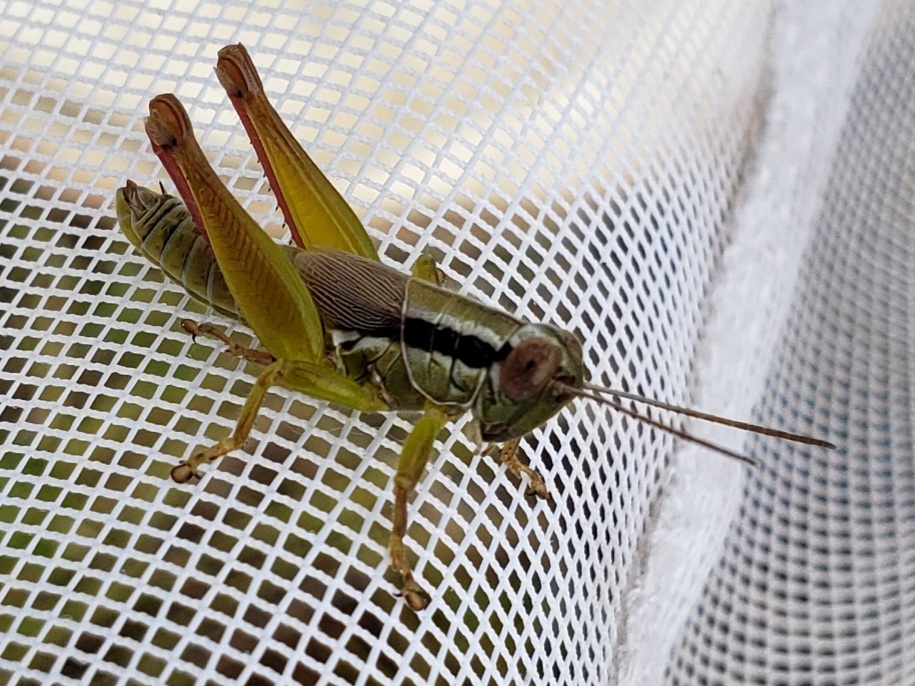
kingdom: Animalia
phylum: Arthropoda
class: Insecta
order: Orthoptera
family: Acrididae
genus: Eotettix
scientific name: Eotettix signatus
